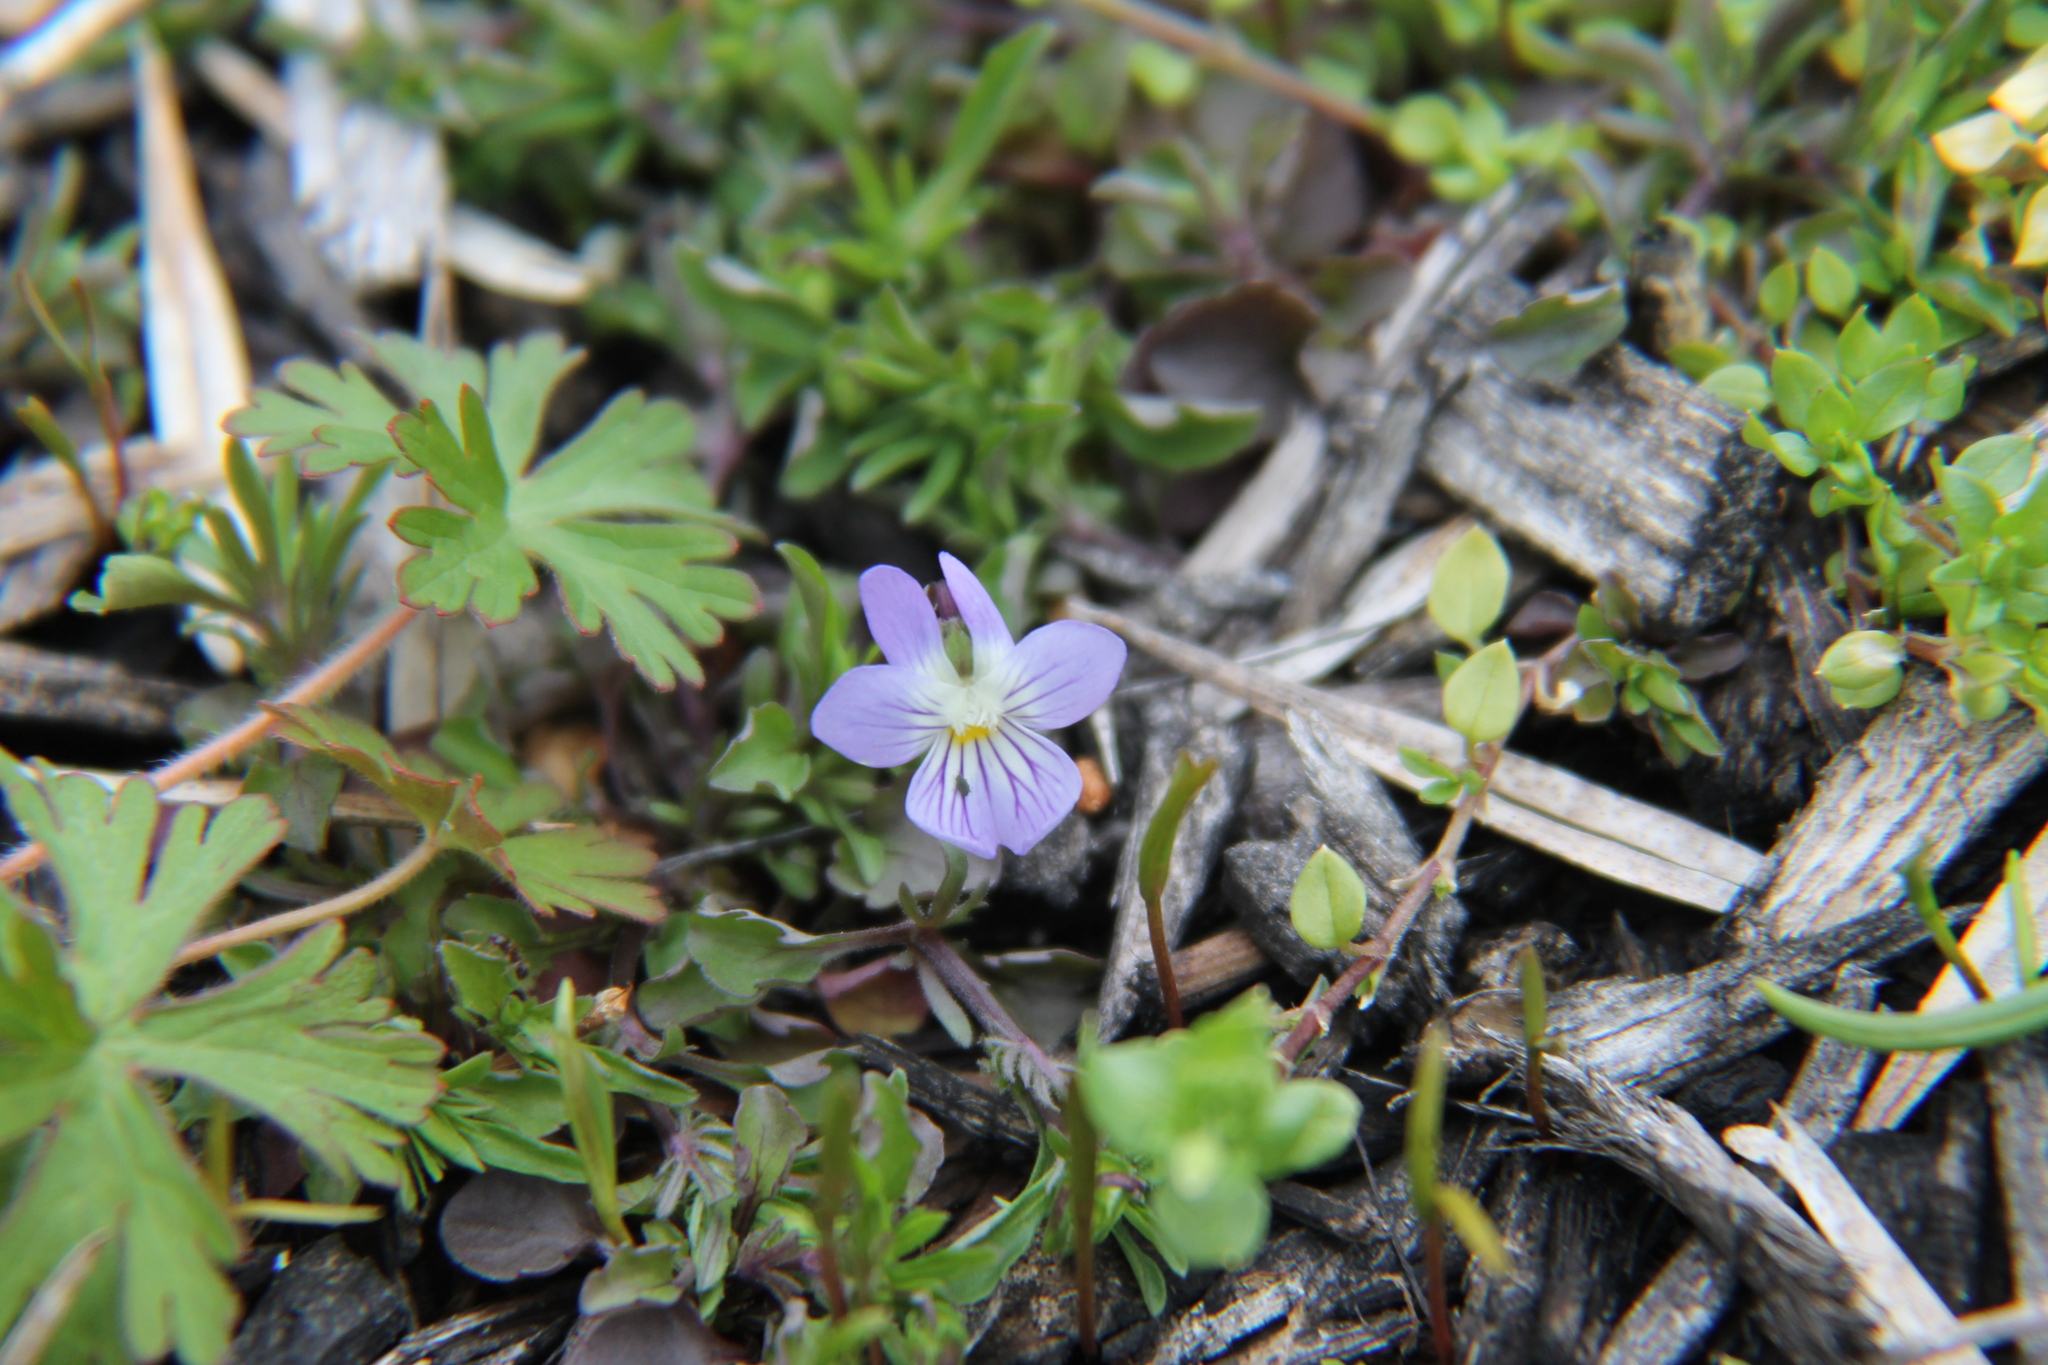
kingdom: Plantae
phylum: Tracheophyta
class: Magnoliopsida
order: Malpighiales
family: Violaceae
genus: Viola
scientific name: Viola rafinesquei
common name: American field pansy
